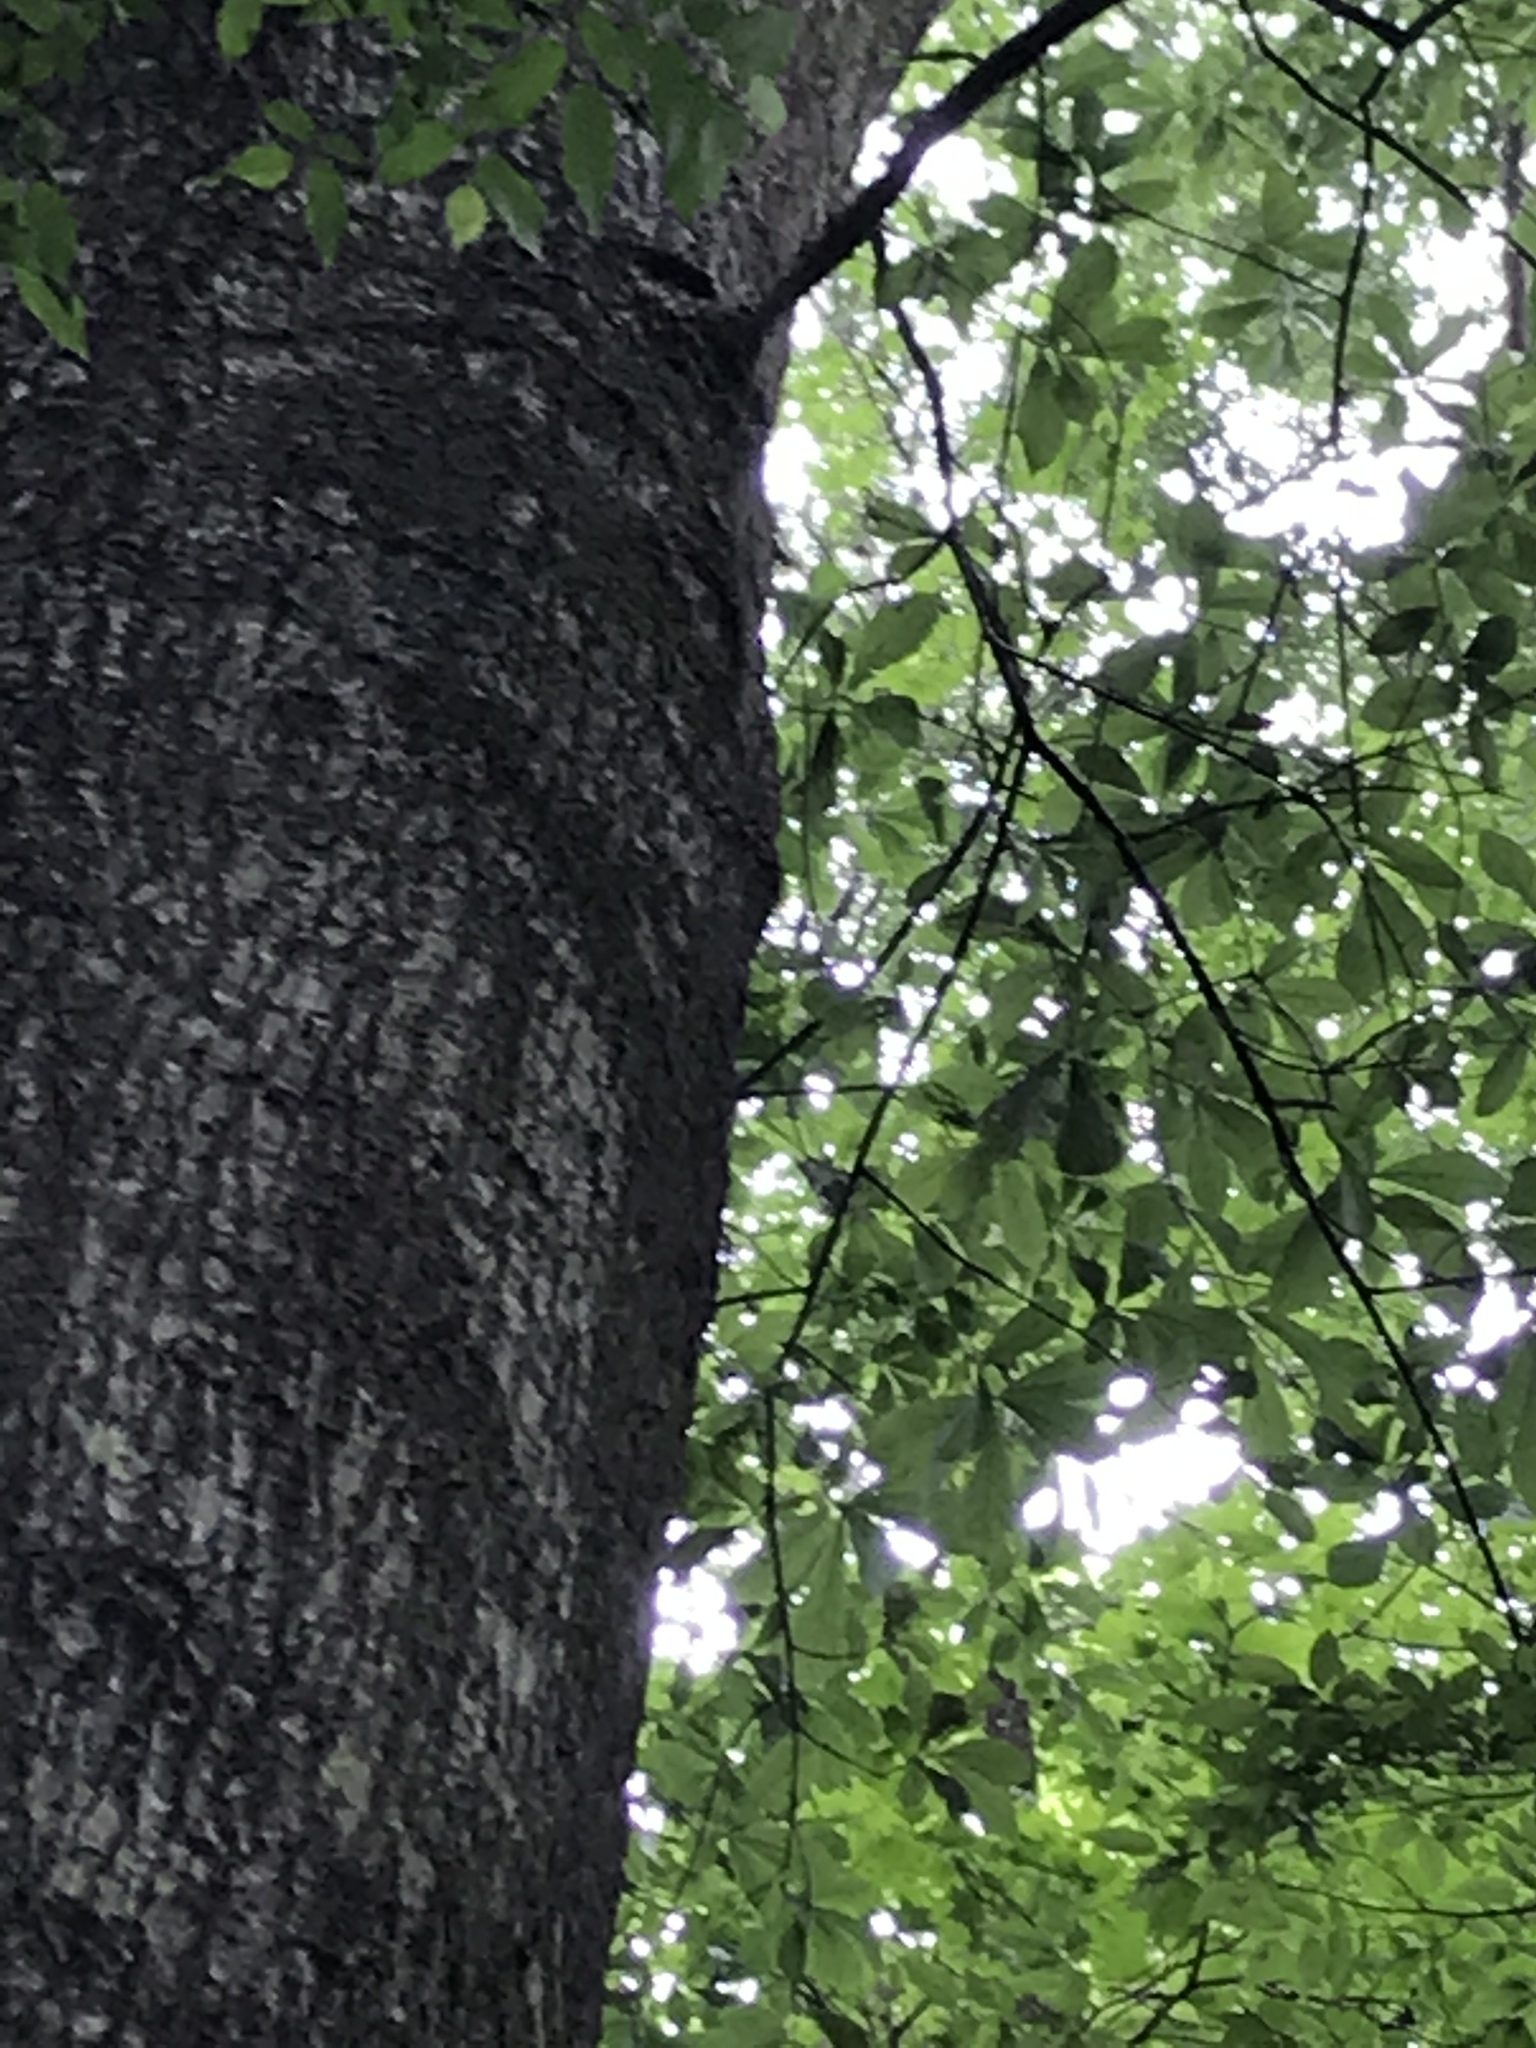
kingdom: Plantae
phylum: Tracheophyta
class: Magnoliopsida
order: Fagales
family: Fagaceae
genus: Quercus
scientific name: Quercus nigra
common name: Water oak
